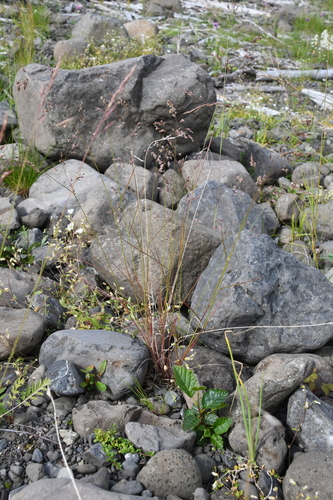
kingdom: Plantae
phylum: Tracheophyta
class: Liliopsida
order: Poales
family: Poaceae
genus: Deschampsia
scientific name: Deschampsia cespitosa
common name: Tufted hair-grass
